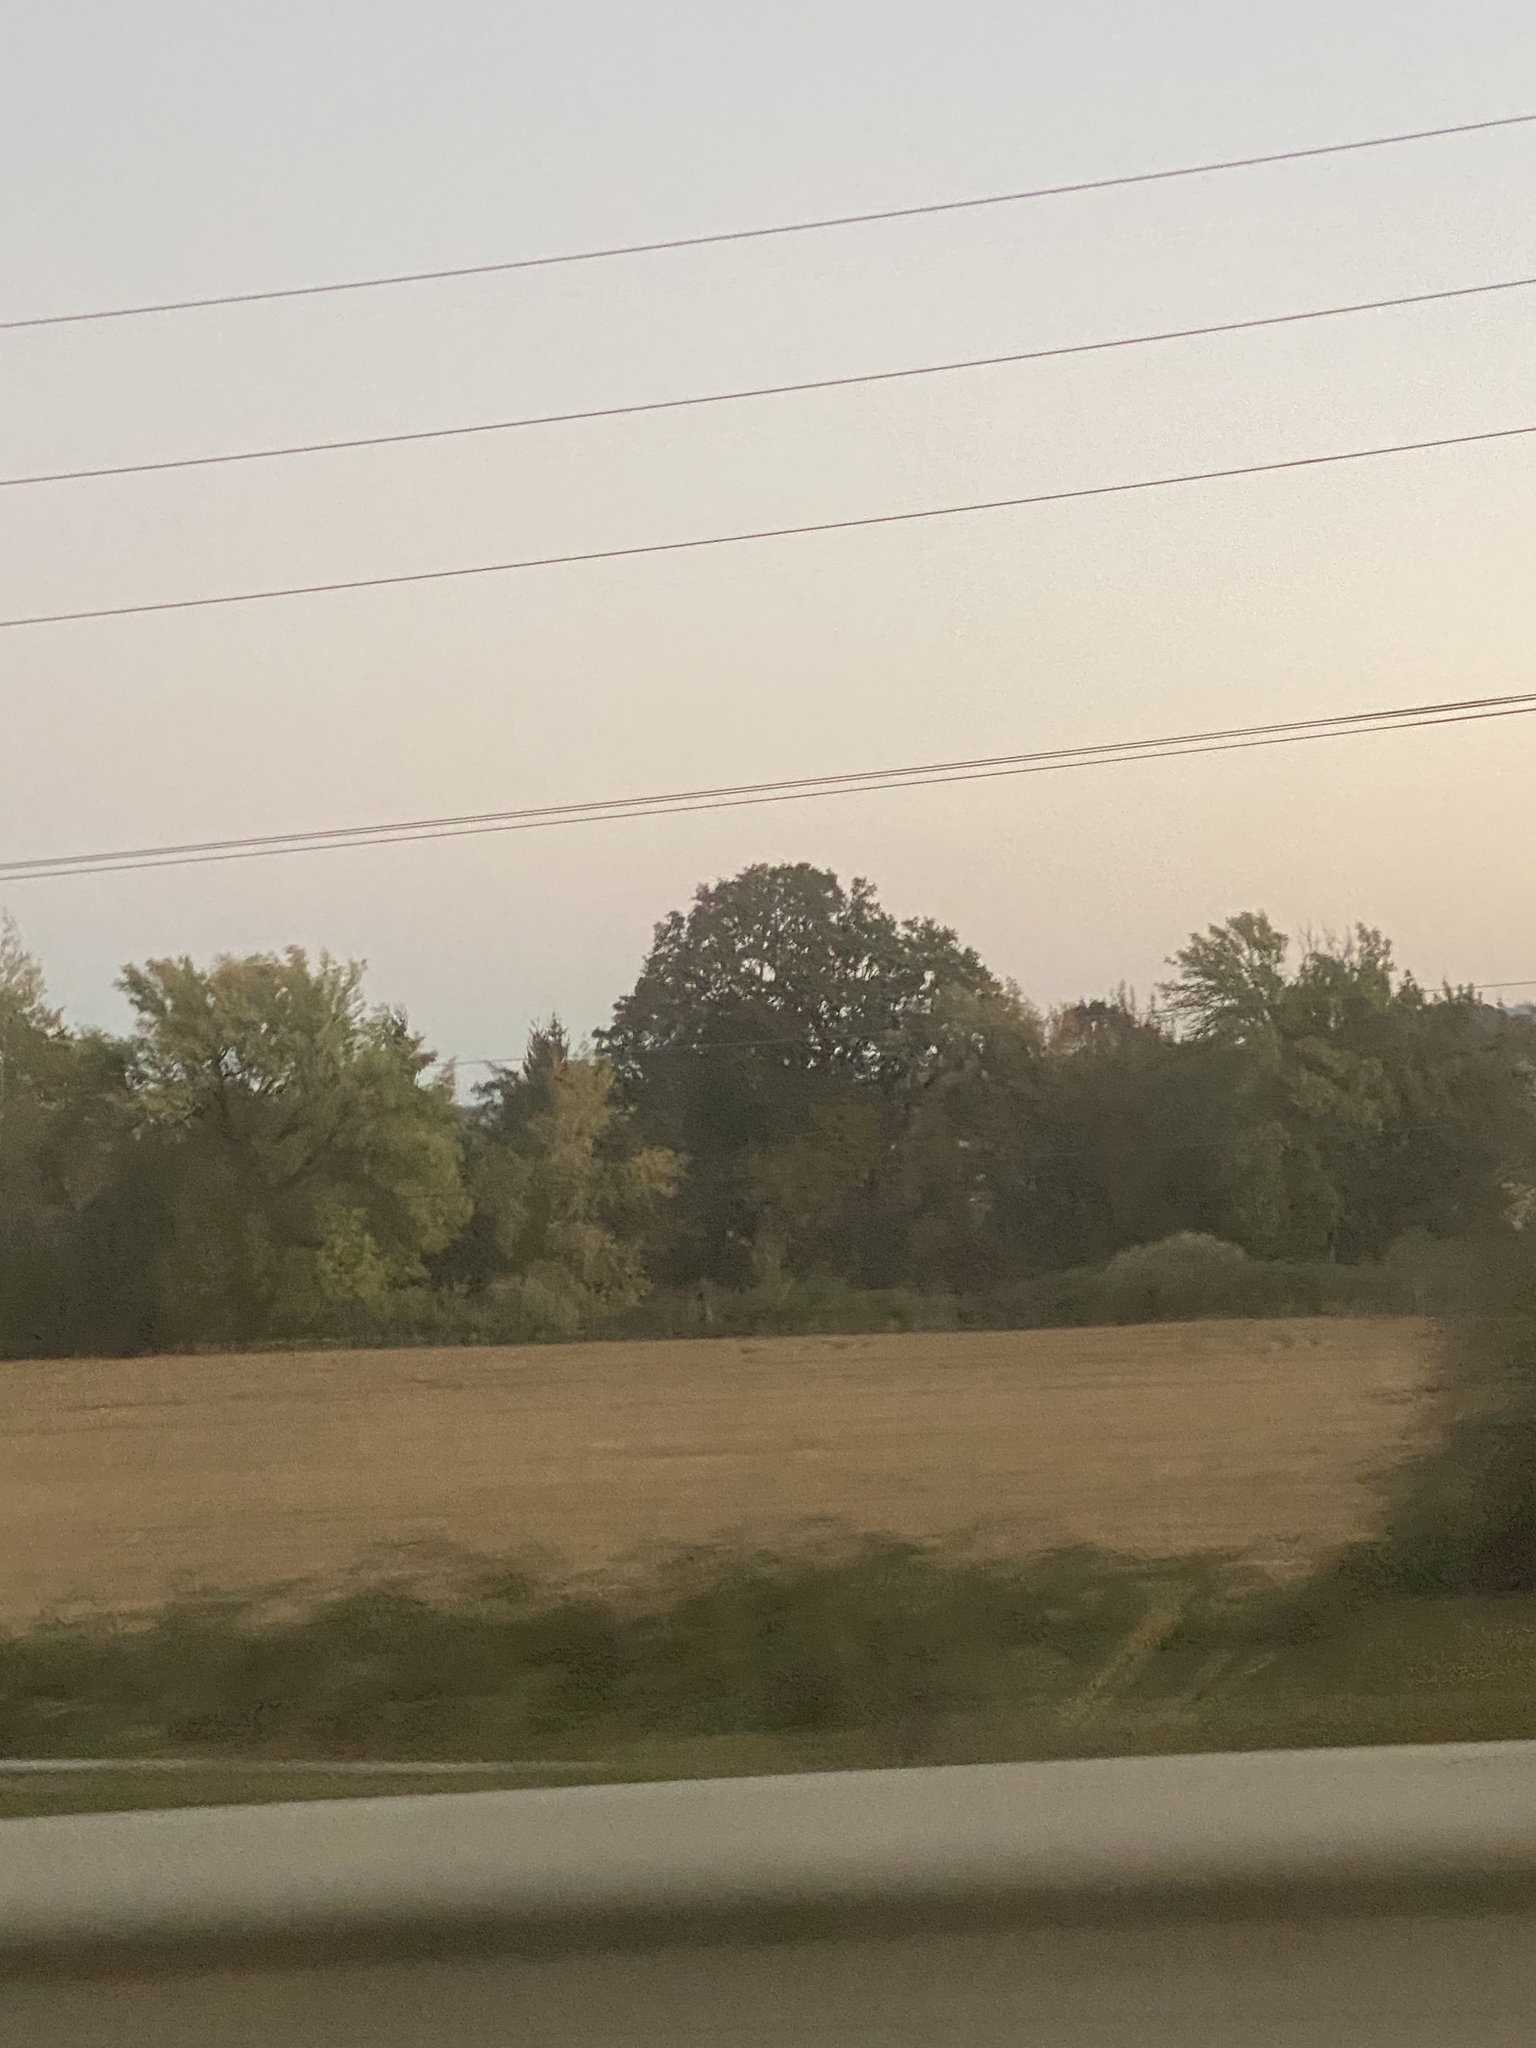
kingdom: Plantae
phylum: Tracheophyta
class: Magnoliopsida
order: Fagales
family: Fagaceae
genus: Quercus
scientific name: Quercus garryana
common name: Garry oak
